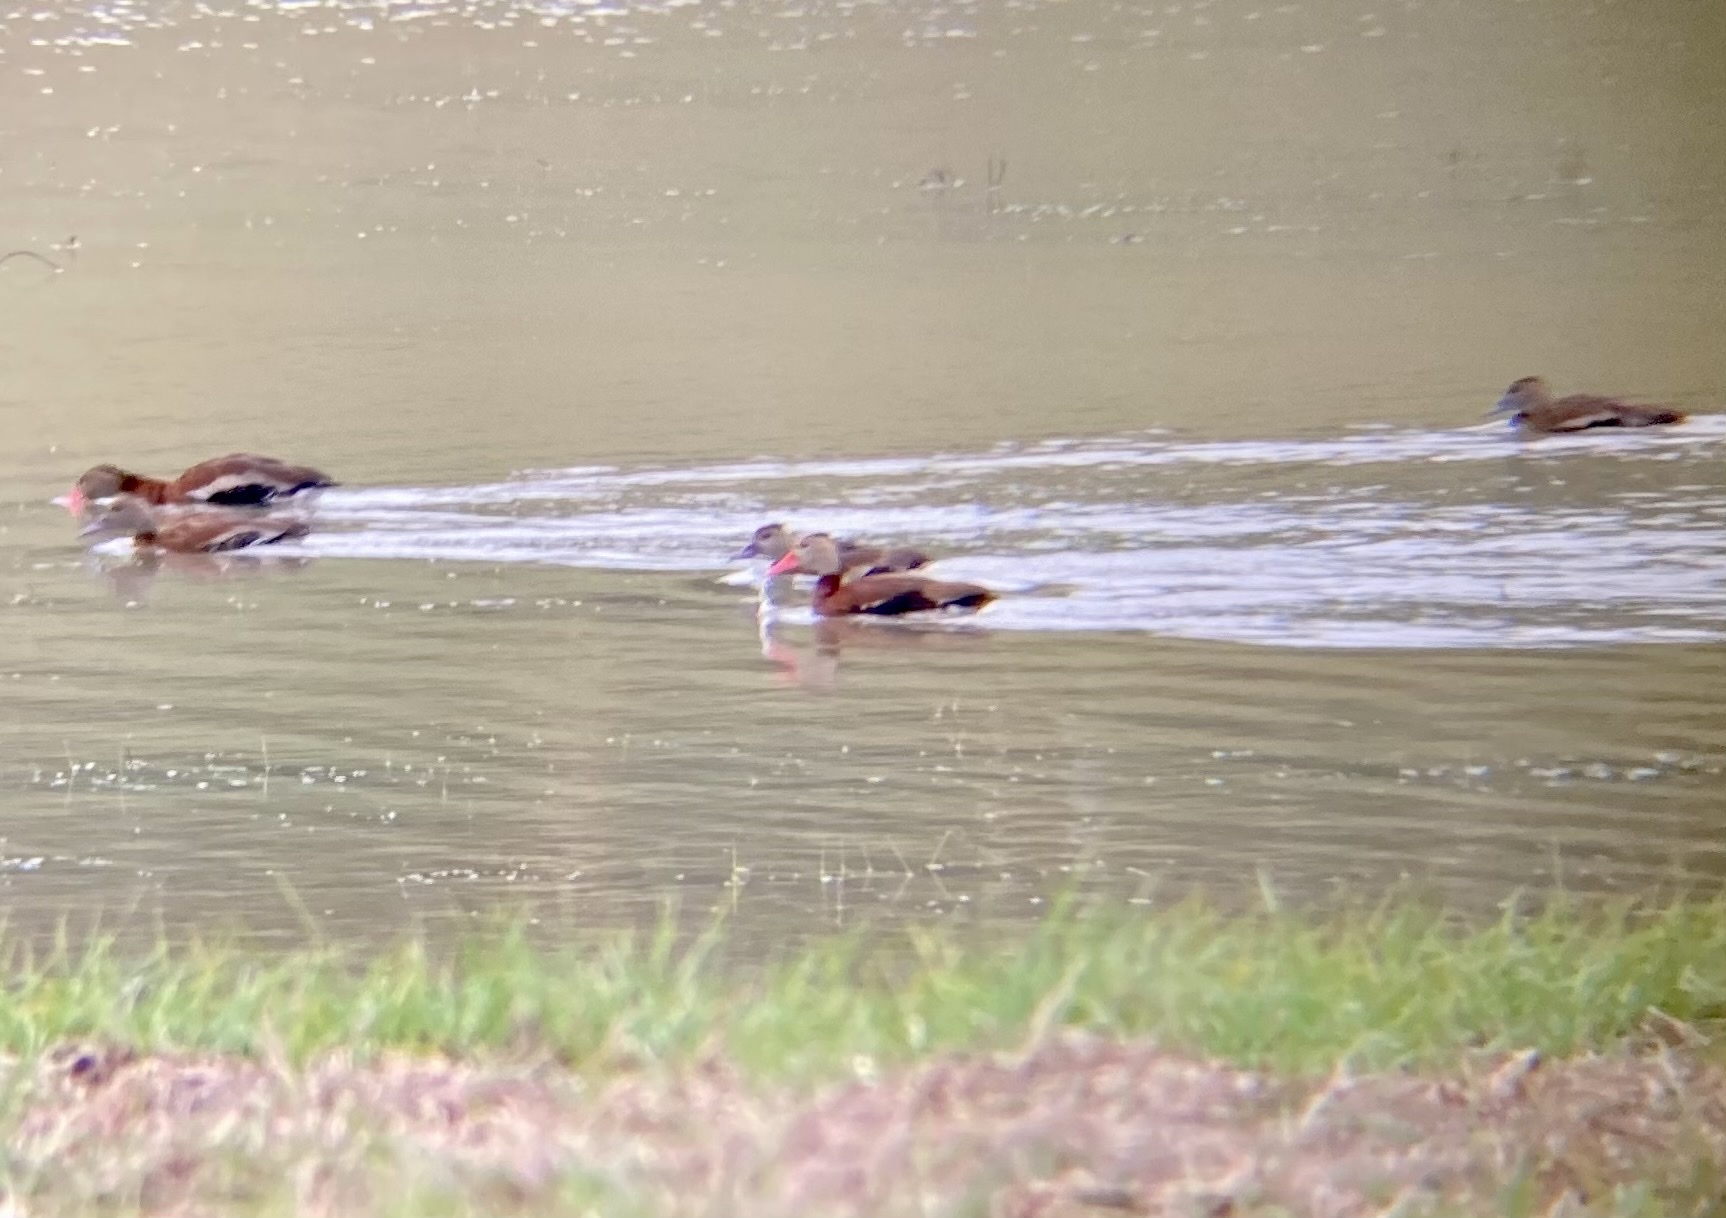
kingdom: Animalia
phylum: Chordata
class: Aves
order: Anseriformes
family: Anatidae
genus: Dendrocygna
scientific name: Dendrocygna autumnalis
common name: Black-bellied whistling duck
